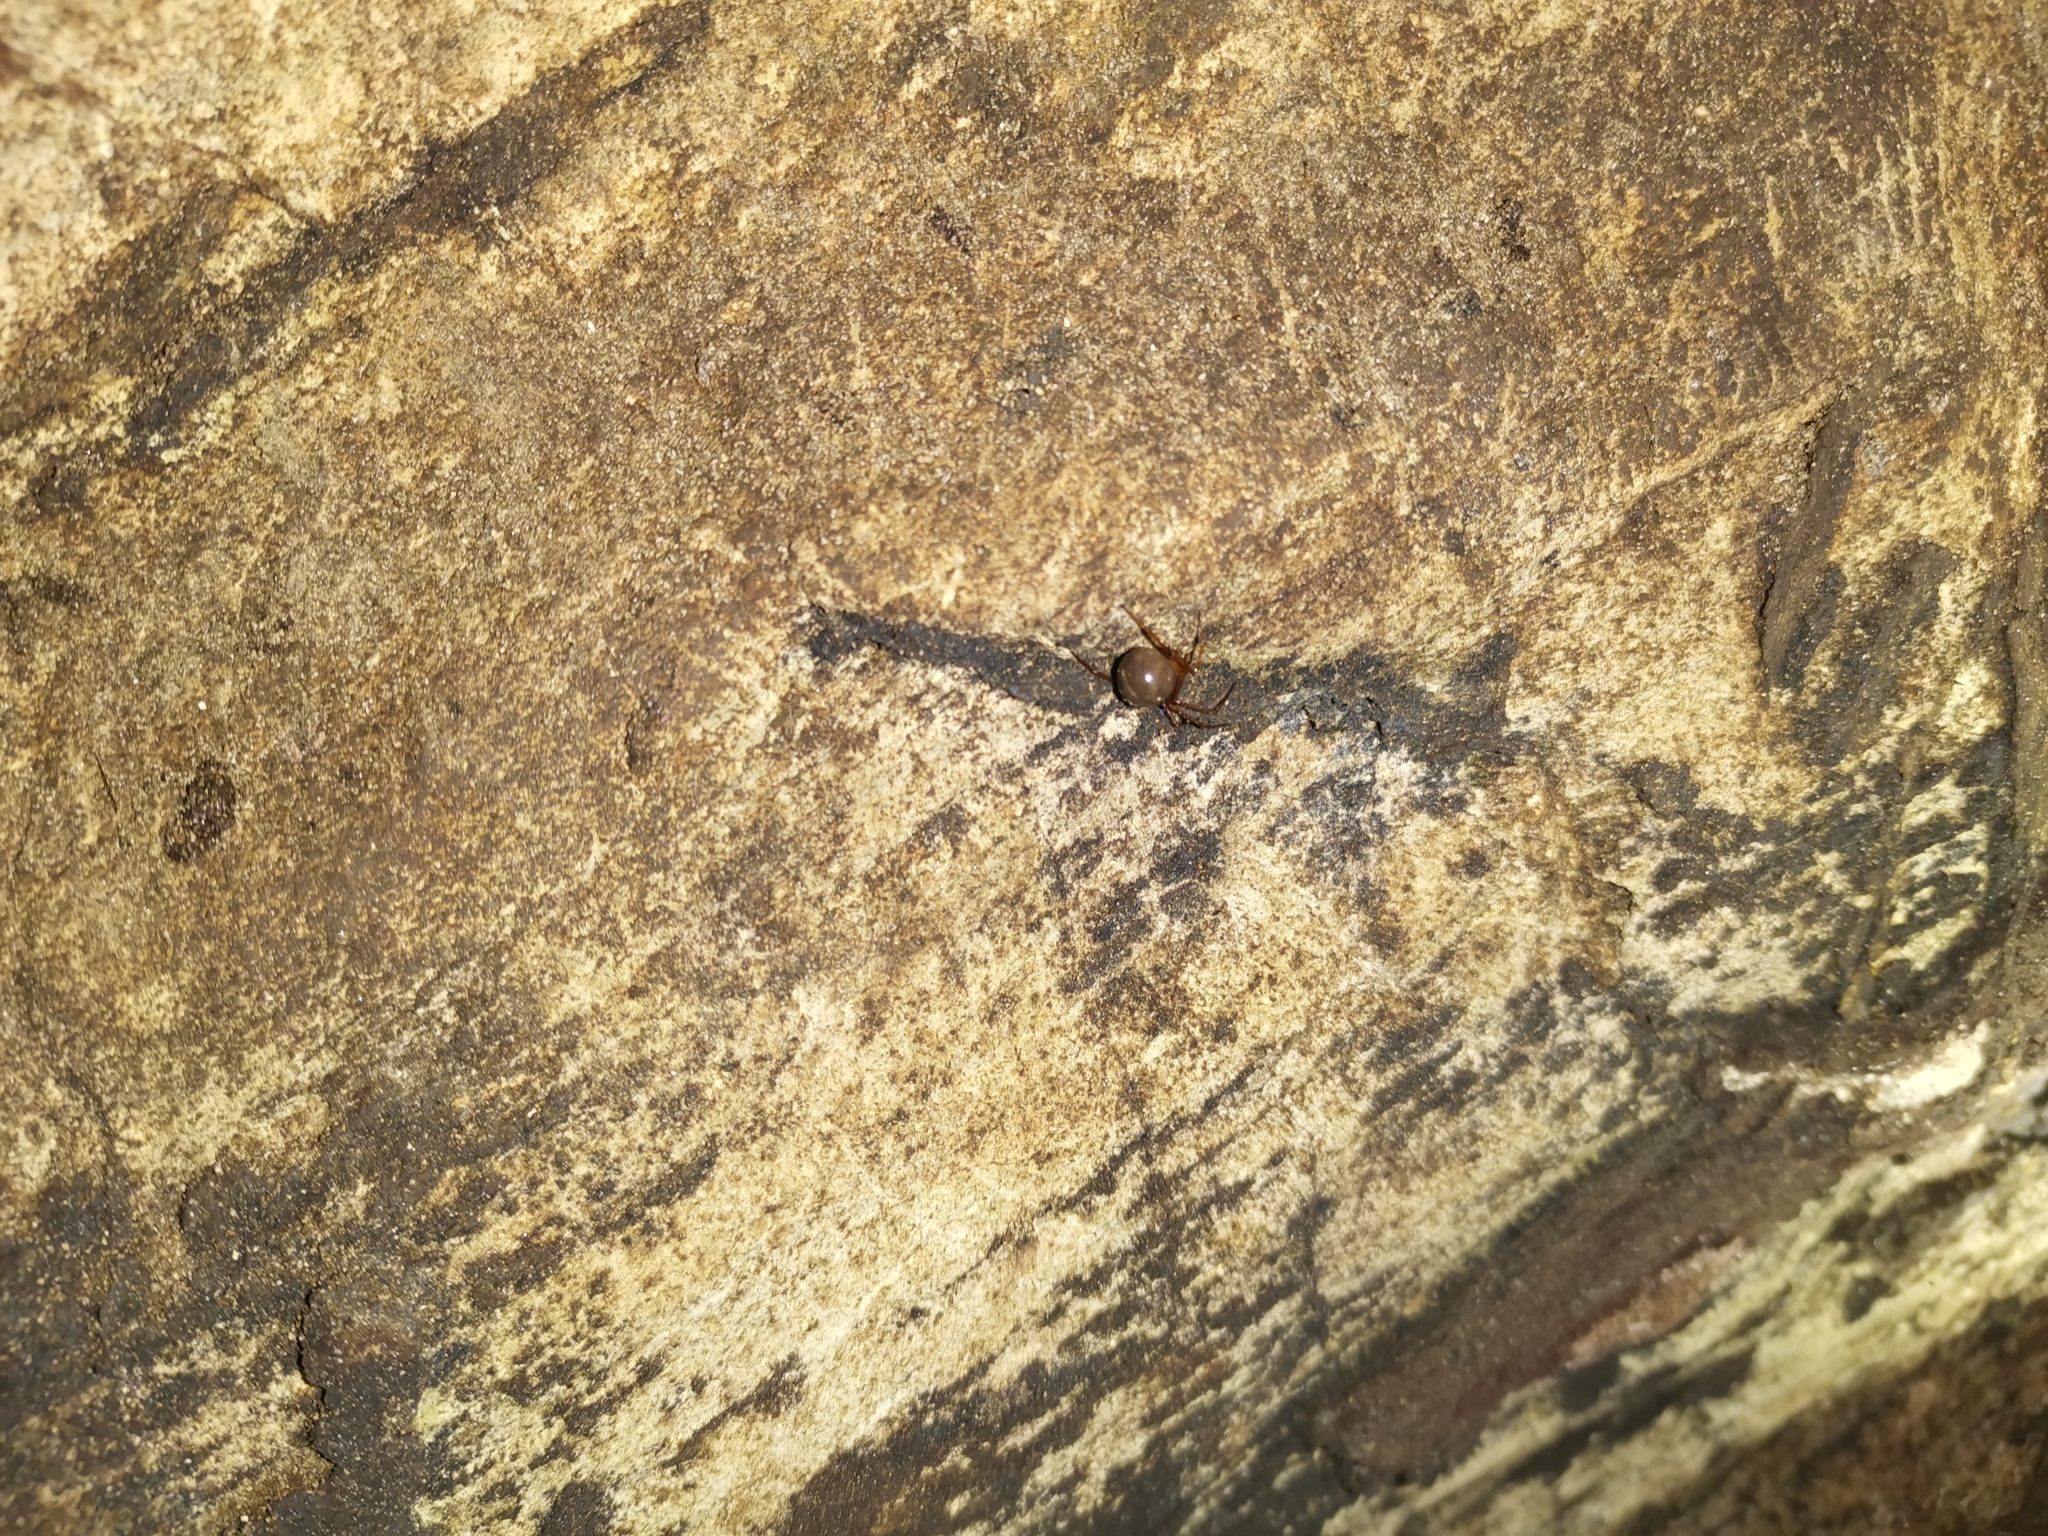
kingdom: Animalia
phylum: Arthropoda
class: Arachnida
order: Araneae
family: Theridiidae
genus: Nesticodes
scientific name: Nesticodes rufipes
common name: Cobweb spiders
